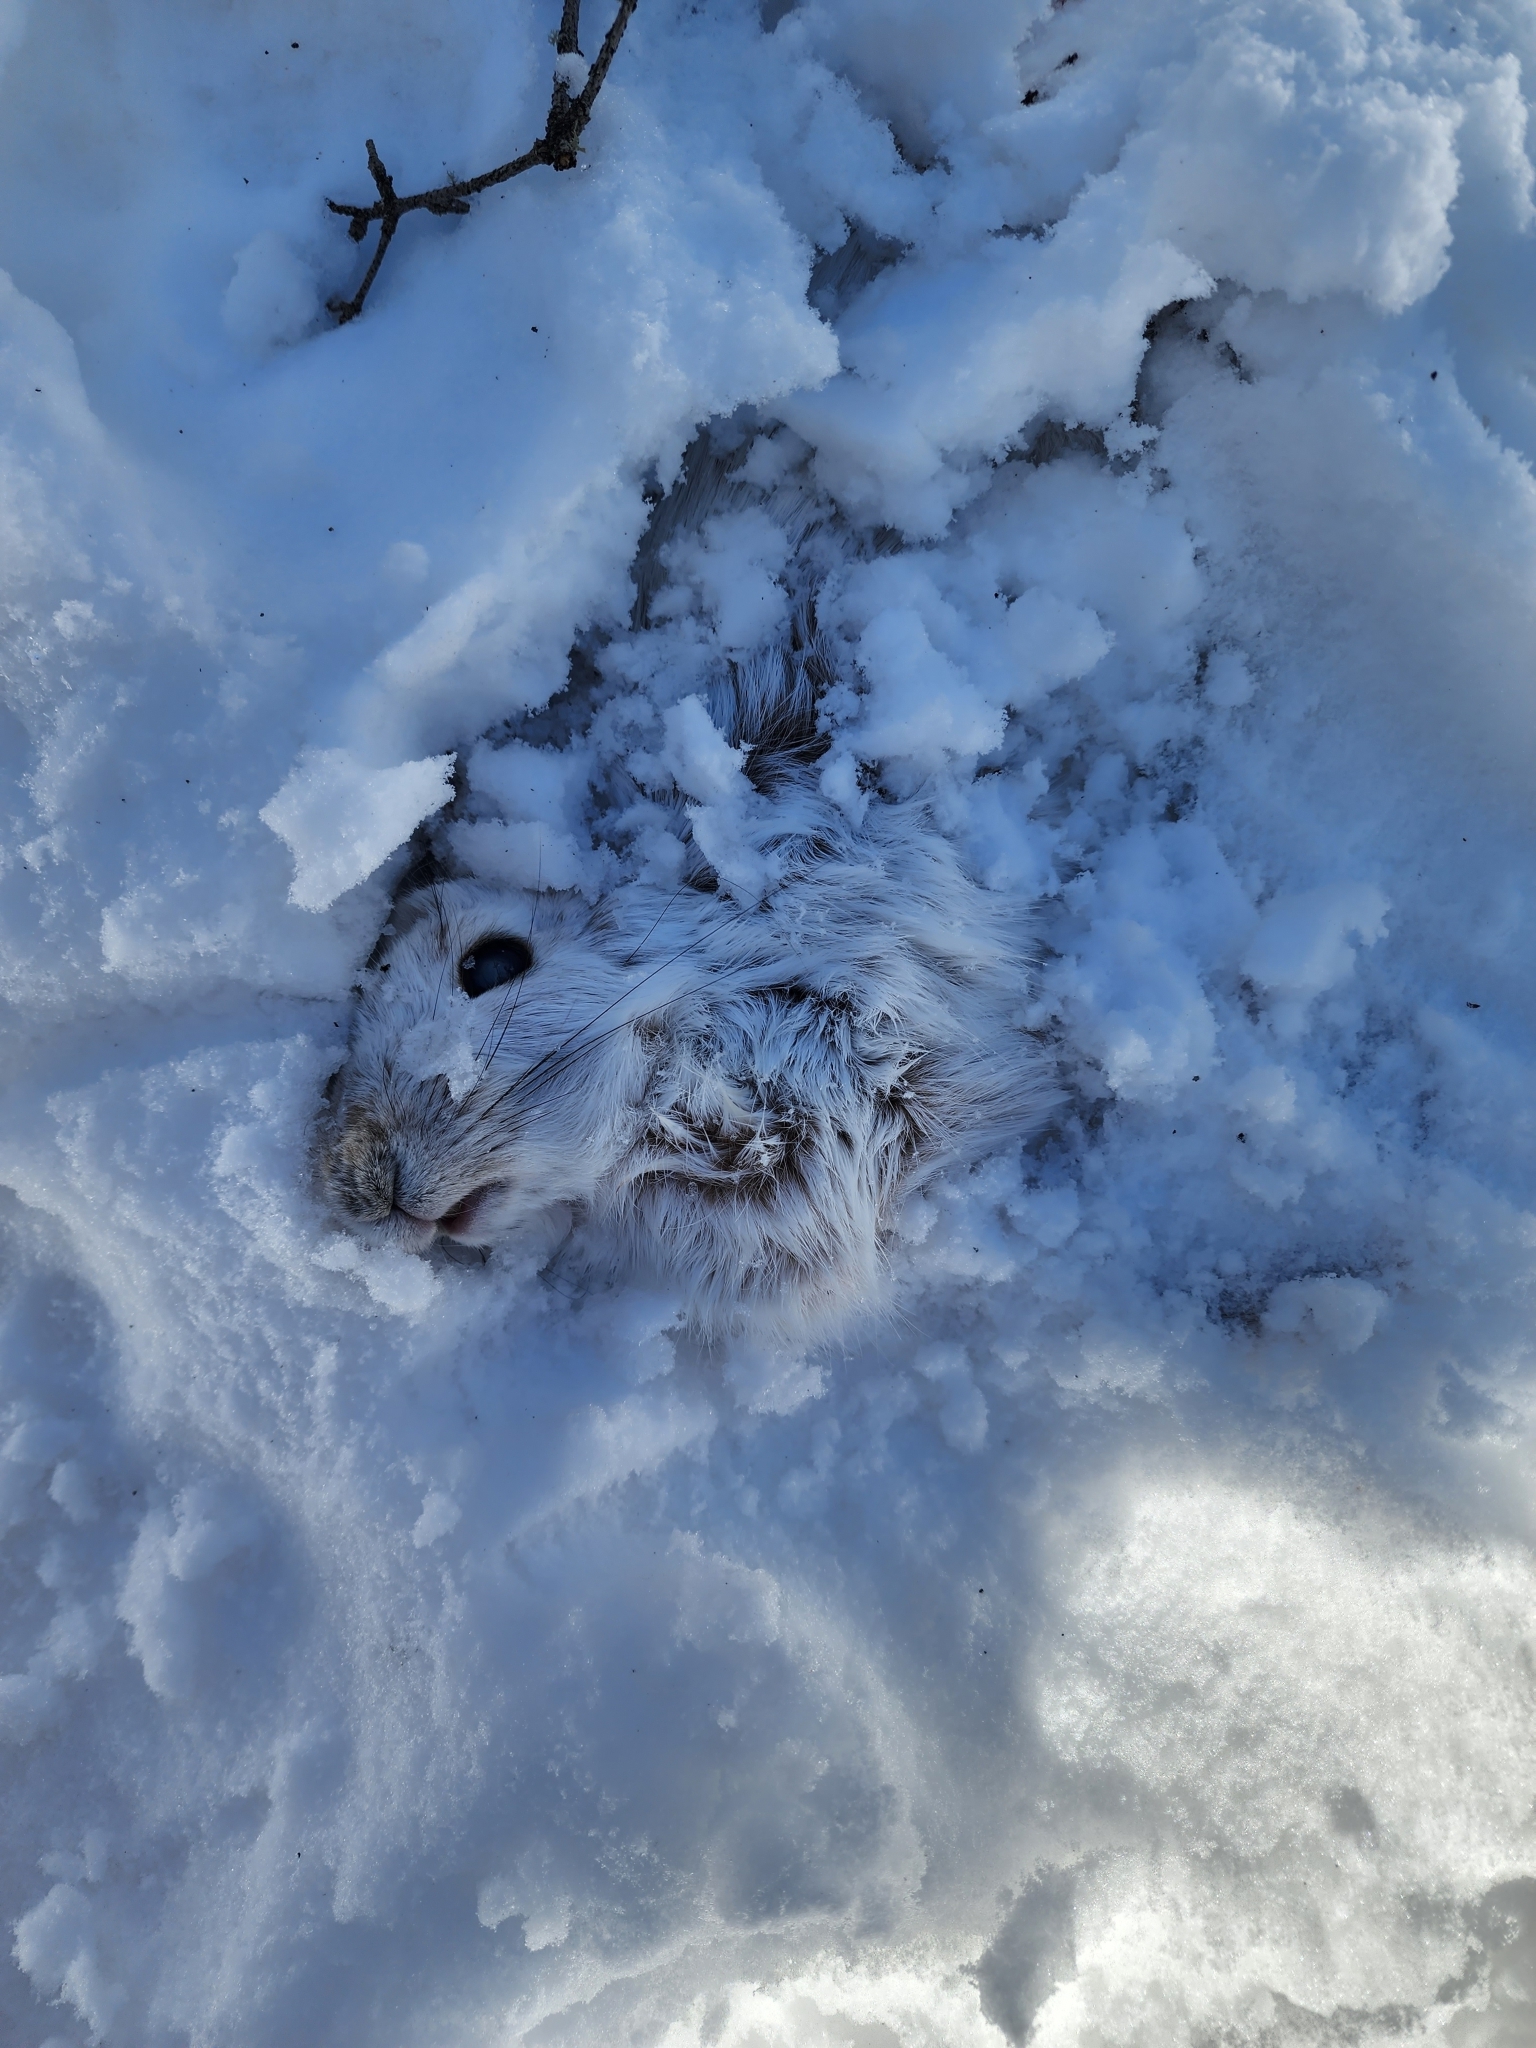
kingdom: Animalia
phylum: Chordata
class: Mammalia
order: Lagomorpha
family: Leporidae
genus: Lepus
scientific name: Lepus americanus
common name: Snowshoe hare
